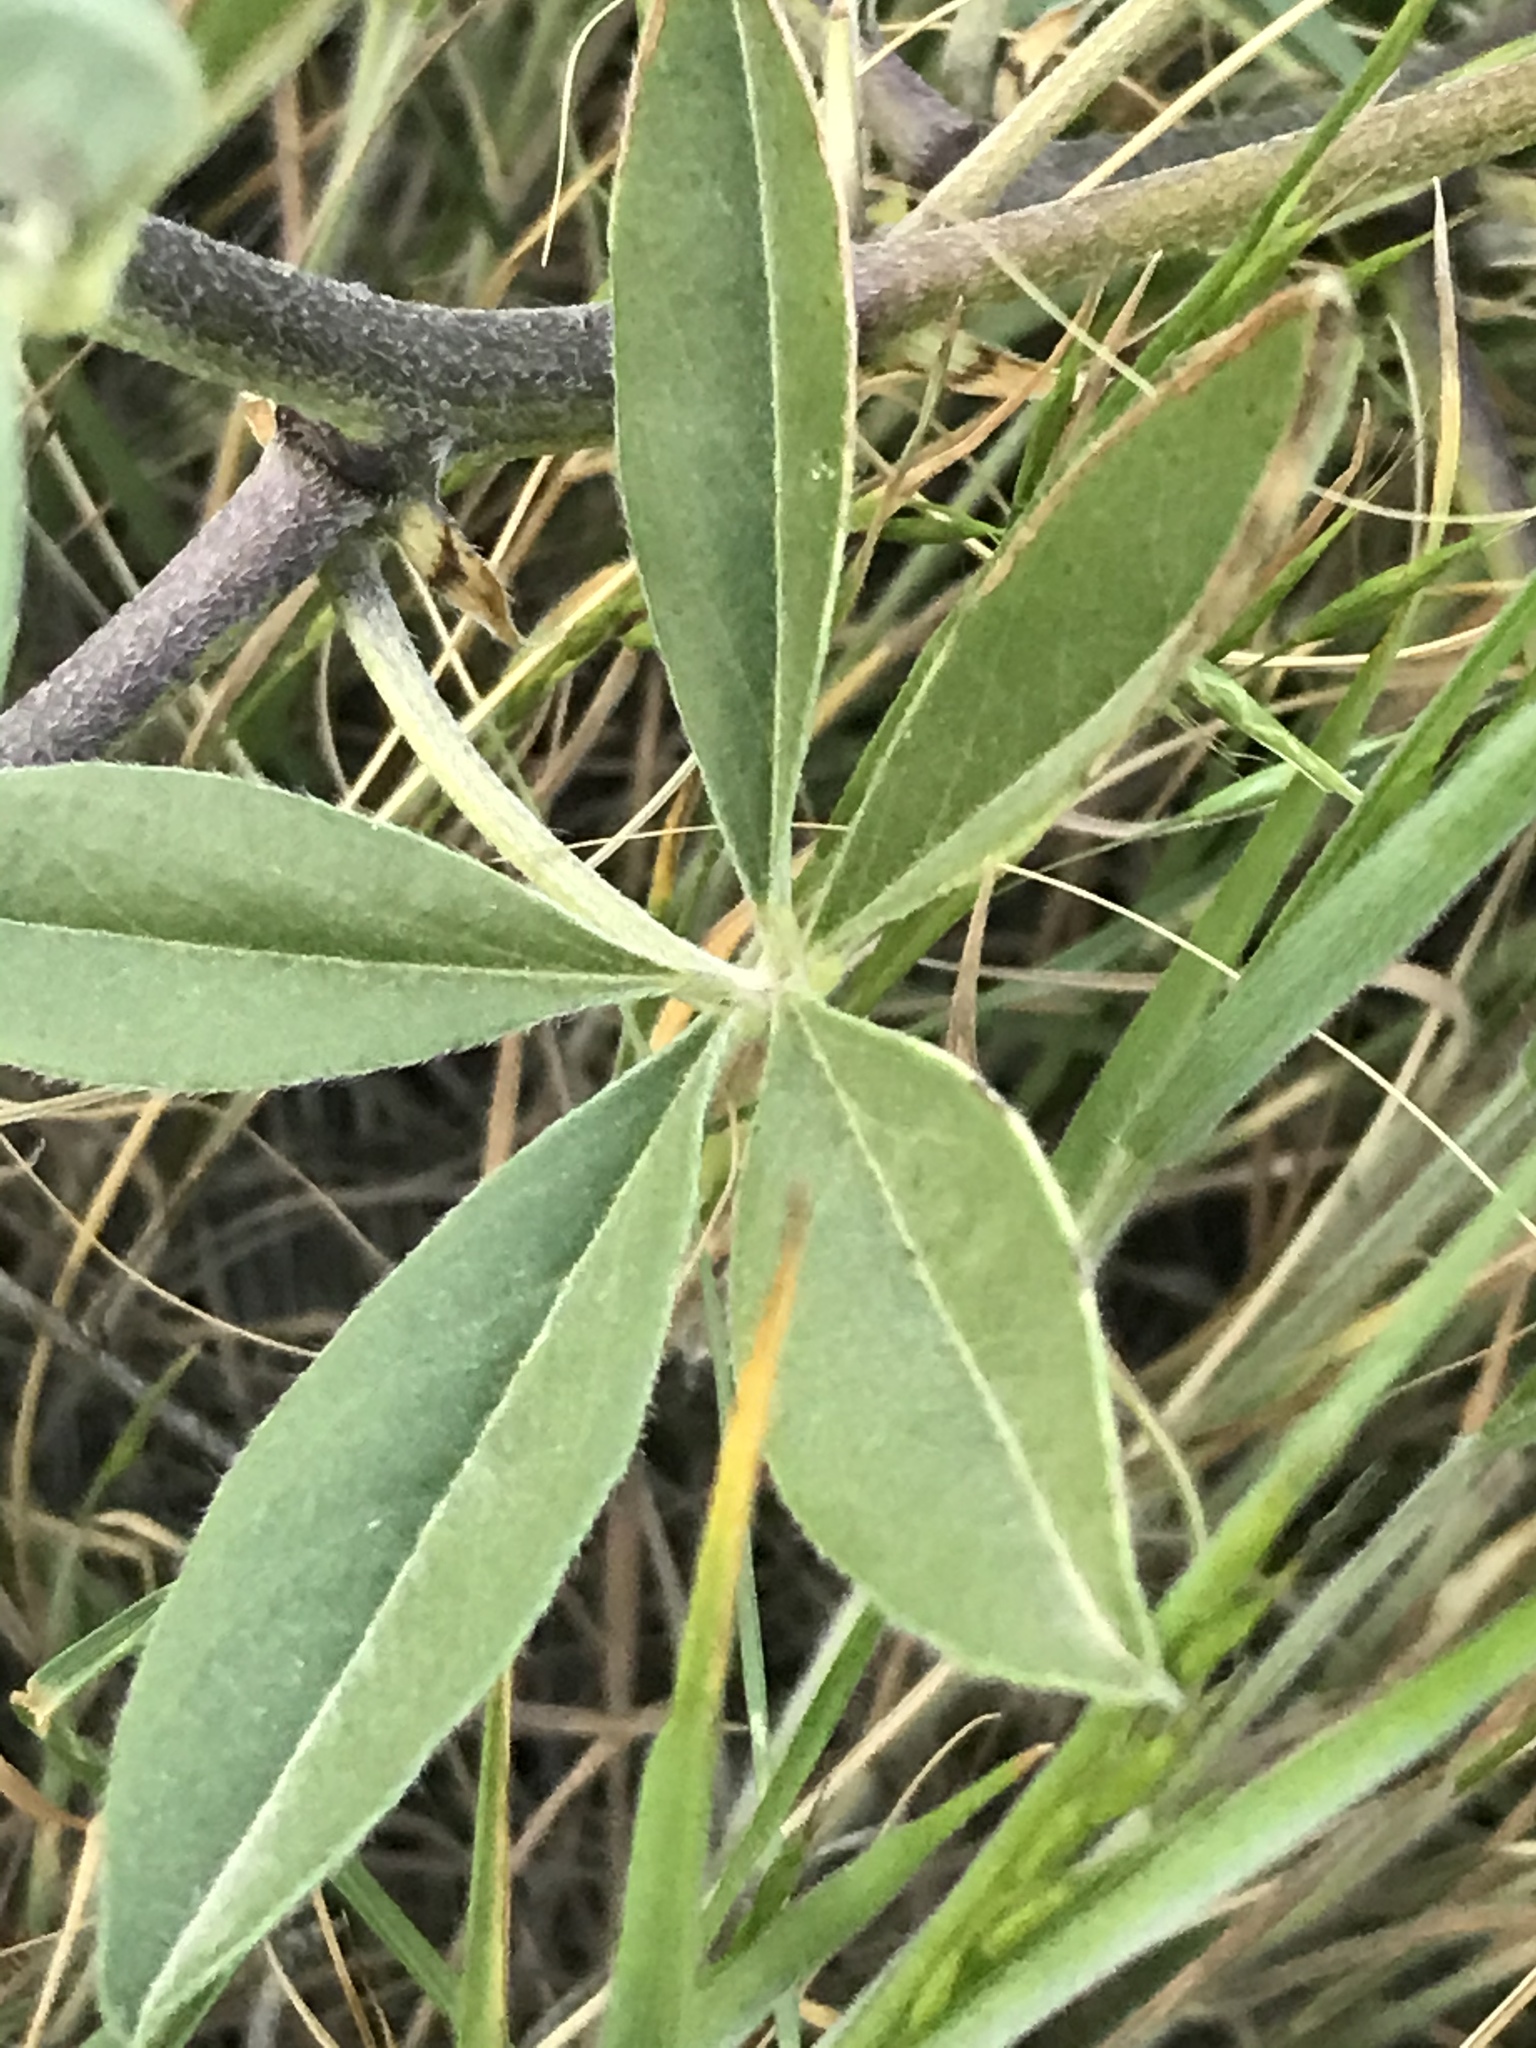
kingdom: Plantae
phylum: Tracheophyta
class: Magnoliopsida
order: Fabales
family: Fabaceae
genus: Pediomelum
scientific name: Pediomelum cuspidatum
